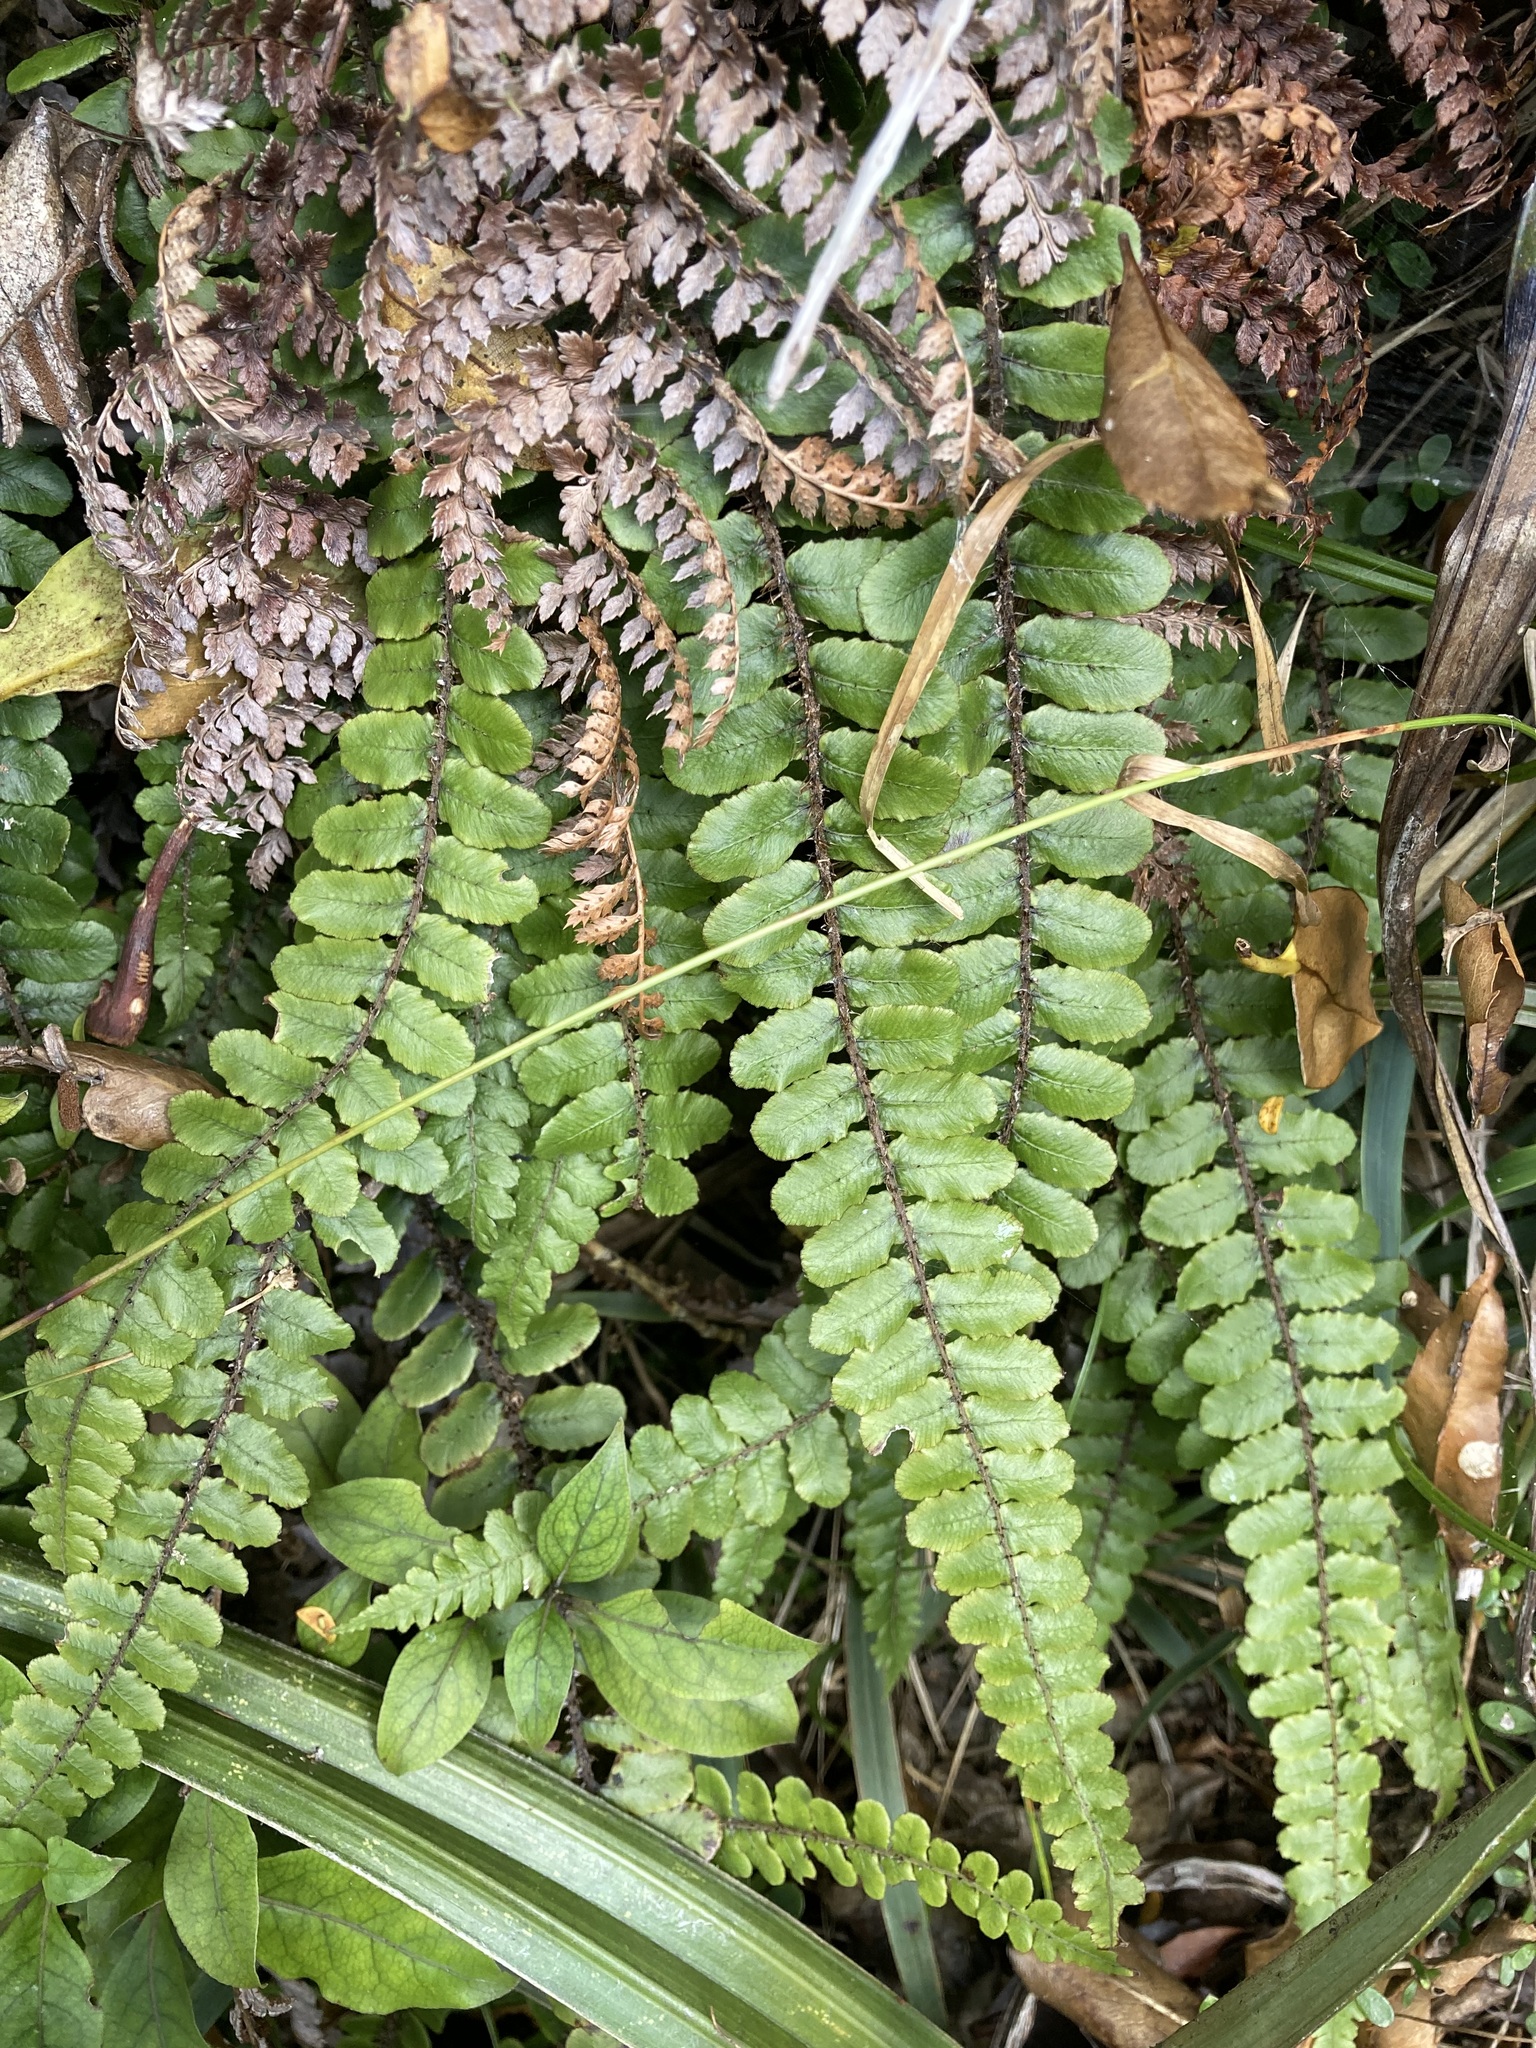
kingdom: Plantae
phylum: Tracheophyta
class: Polypodiopsida
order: Polypodiales
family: Blechnaceae
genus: Cranfillia
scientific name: Cranfillia fluviatilis
